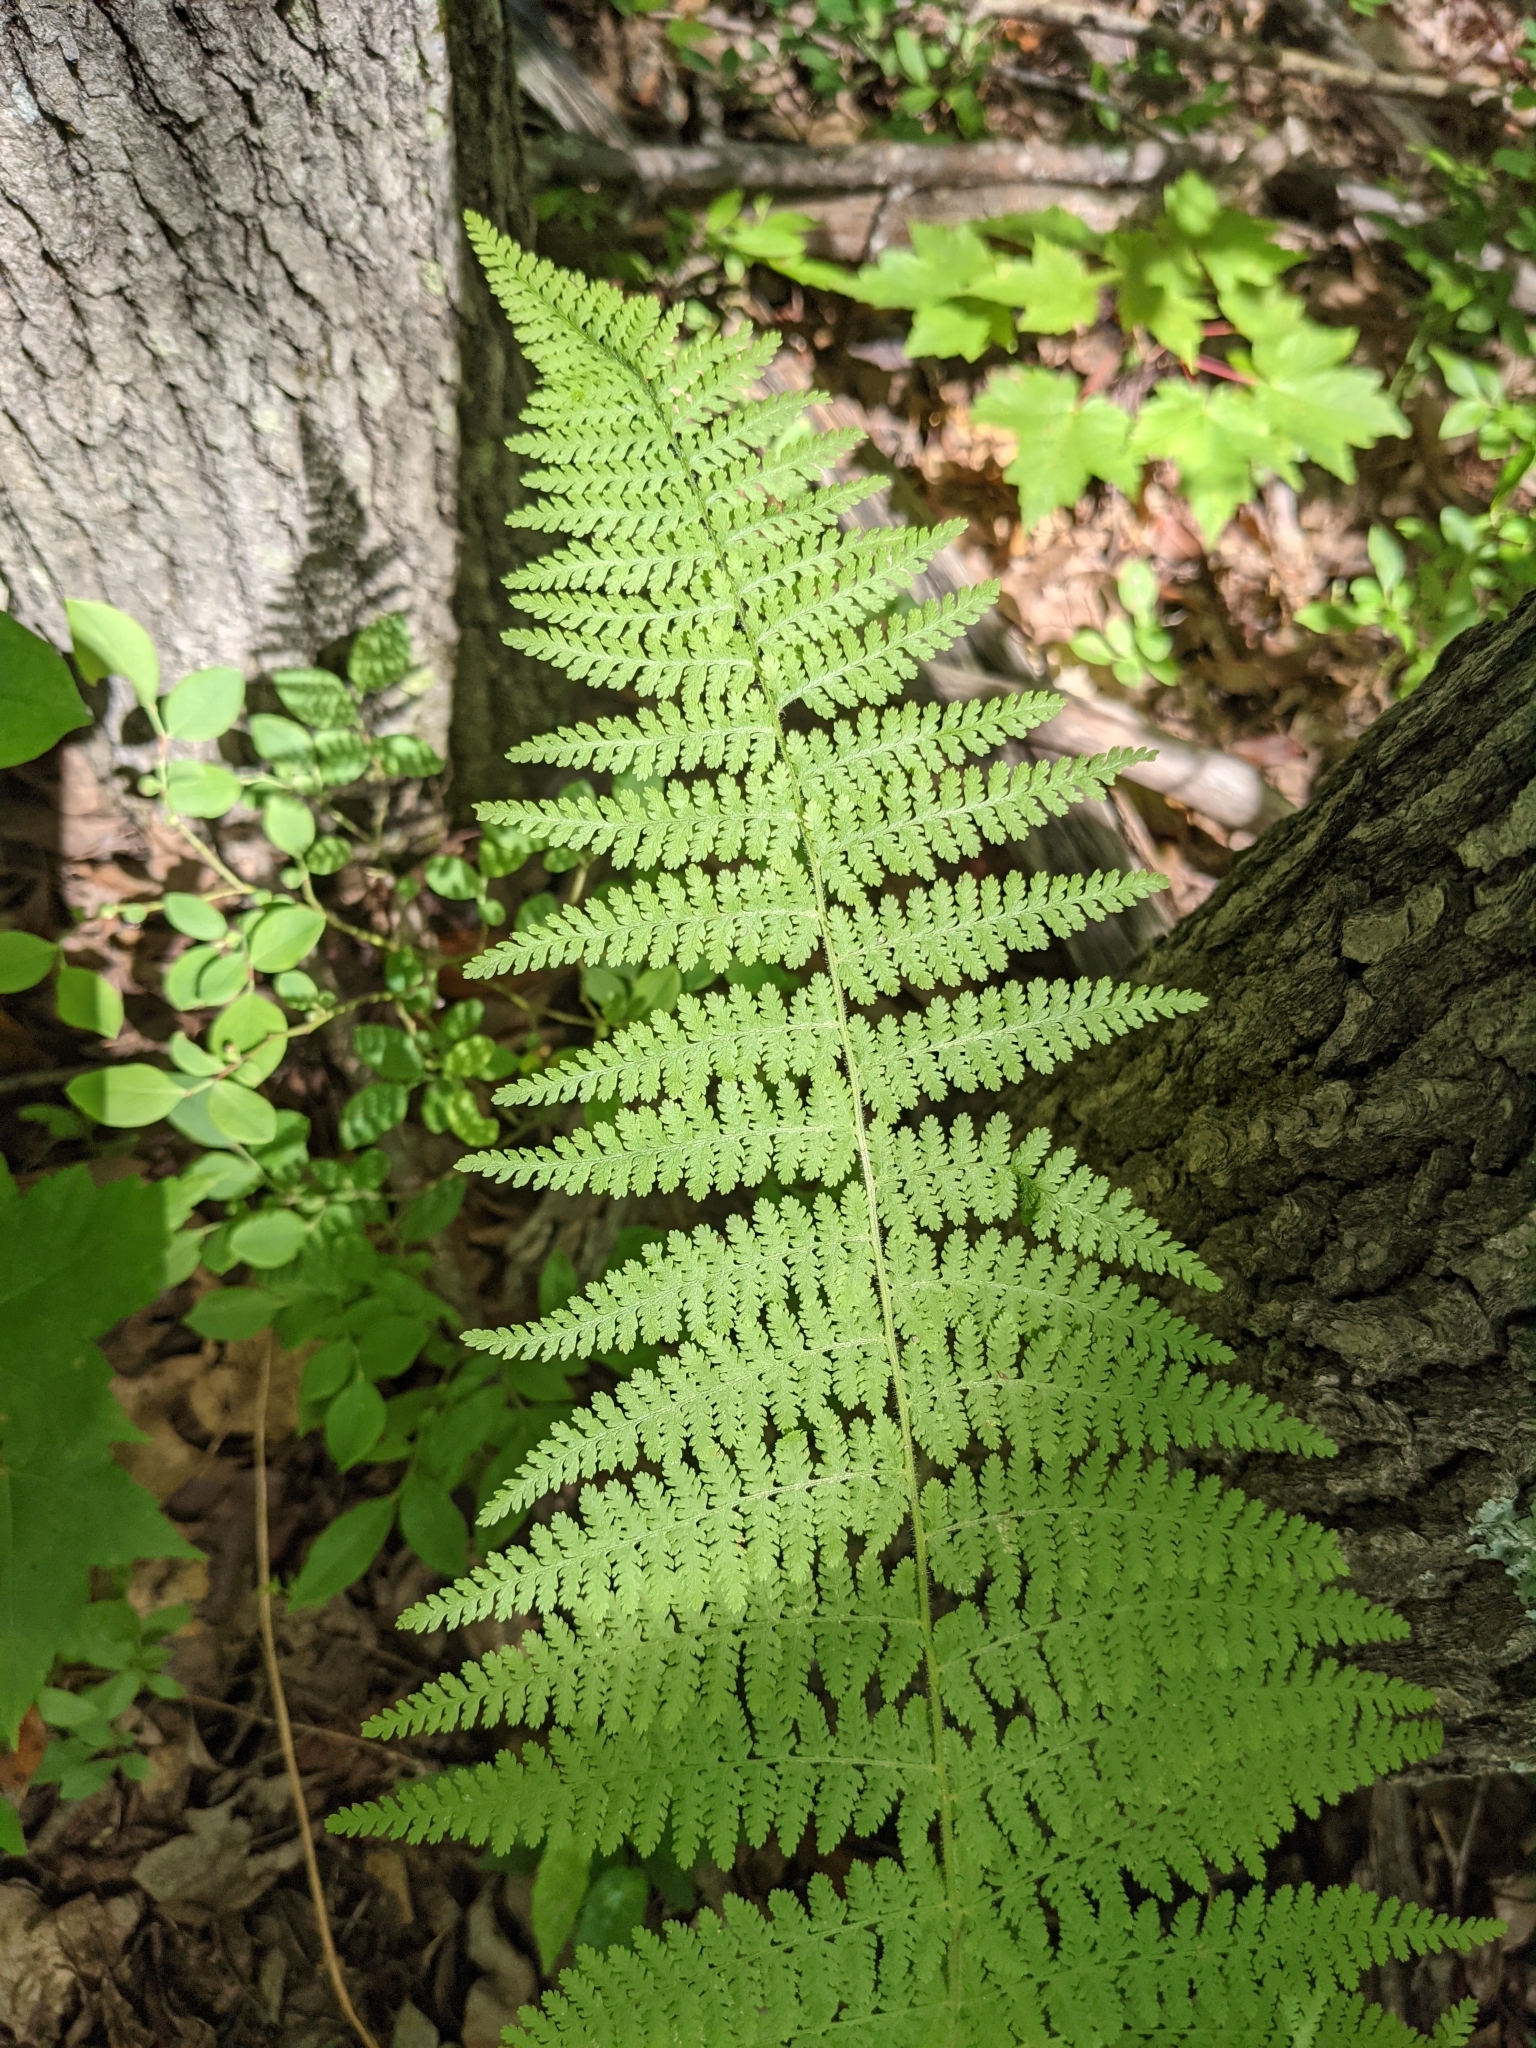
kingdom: Plantae
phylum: Tracheophyta
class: Polypodiopsida
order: Polypodiales
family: Dennstaedtiaceae
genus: Sitobolium
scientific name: Sitobolium punctilobum
